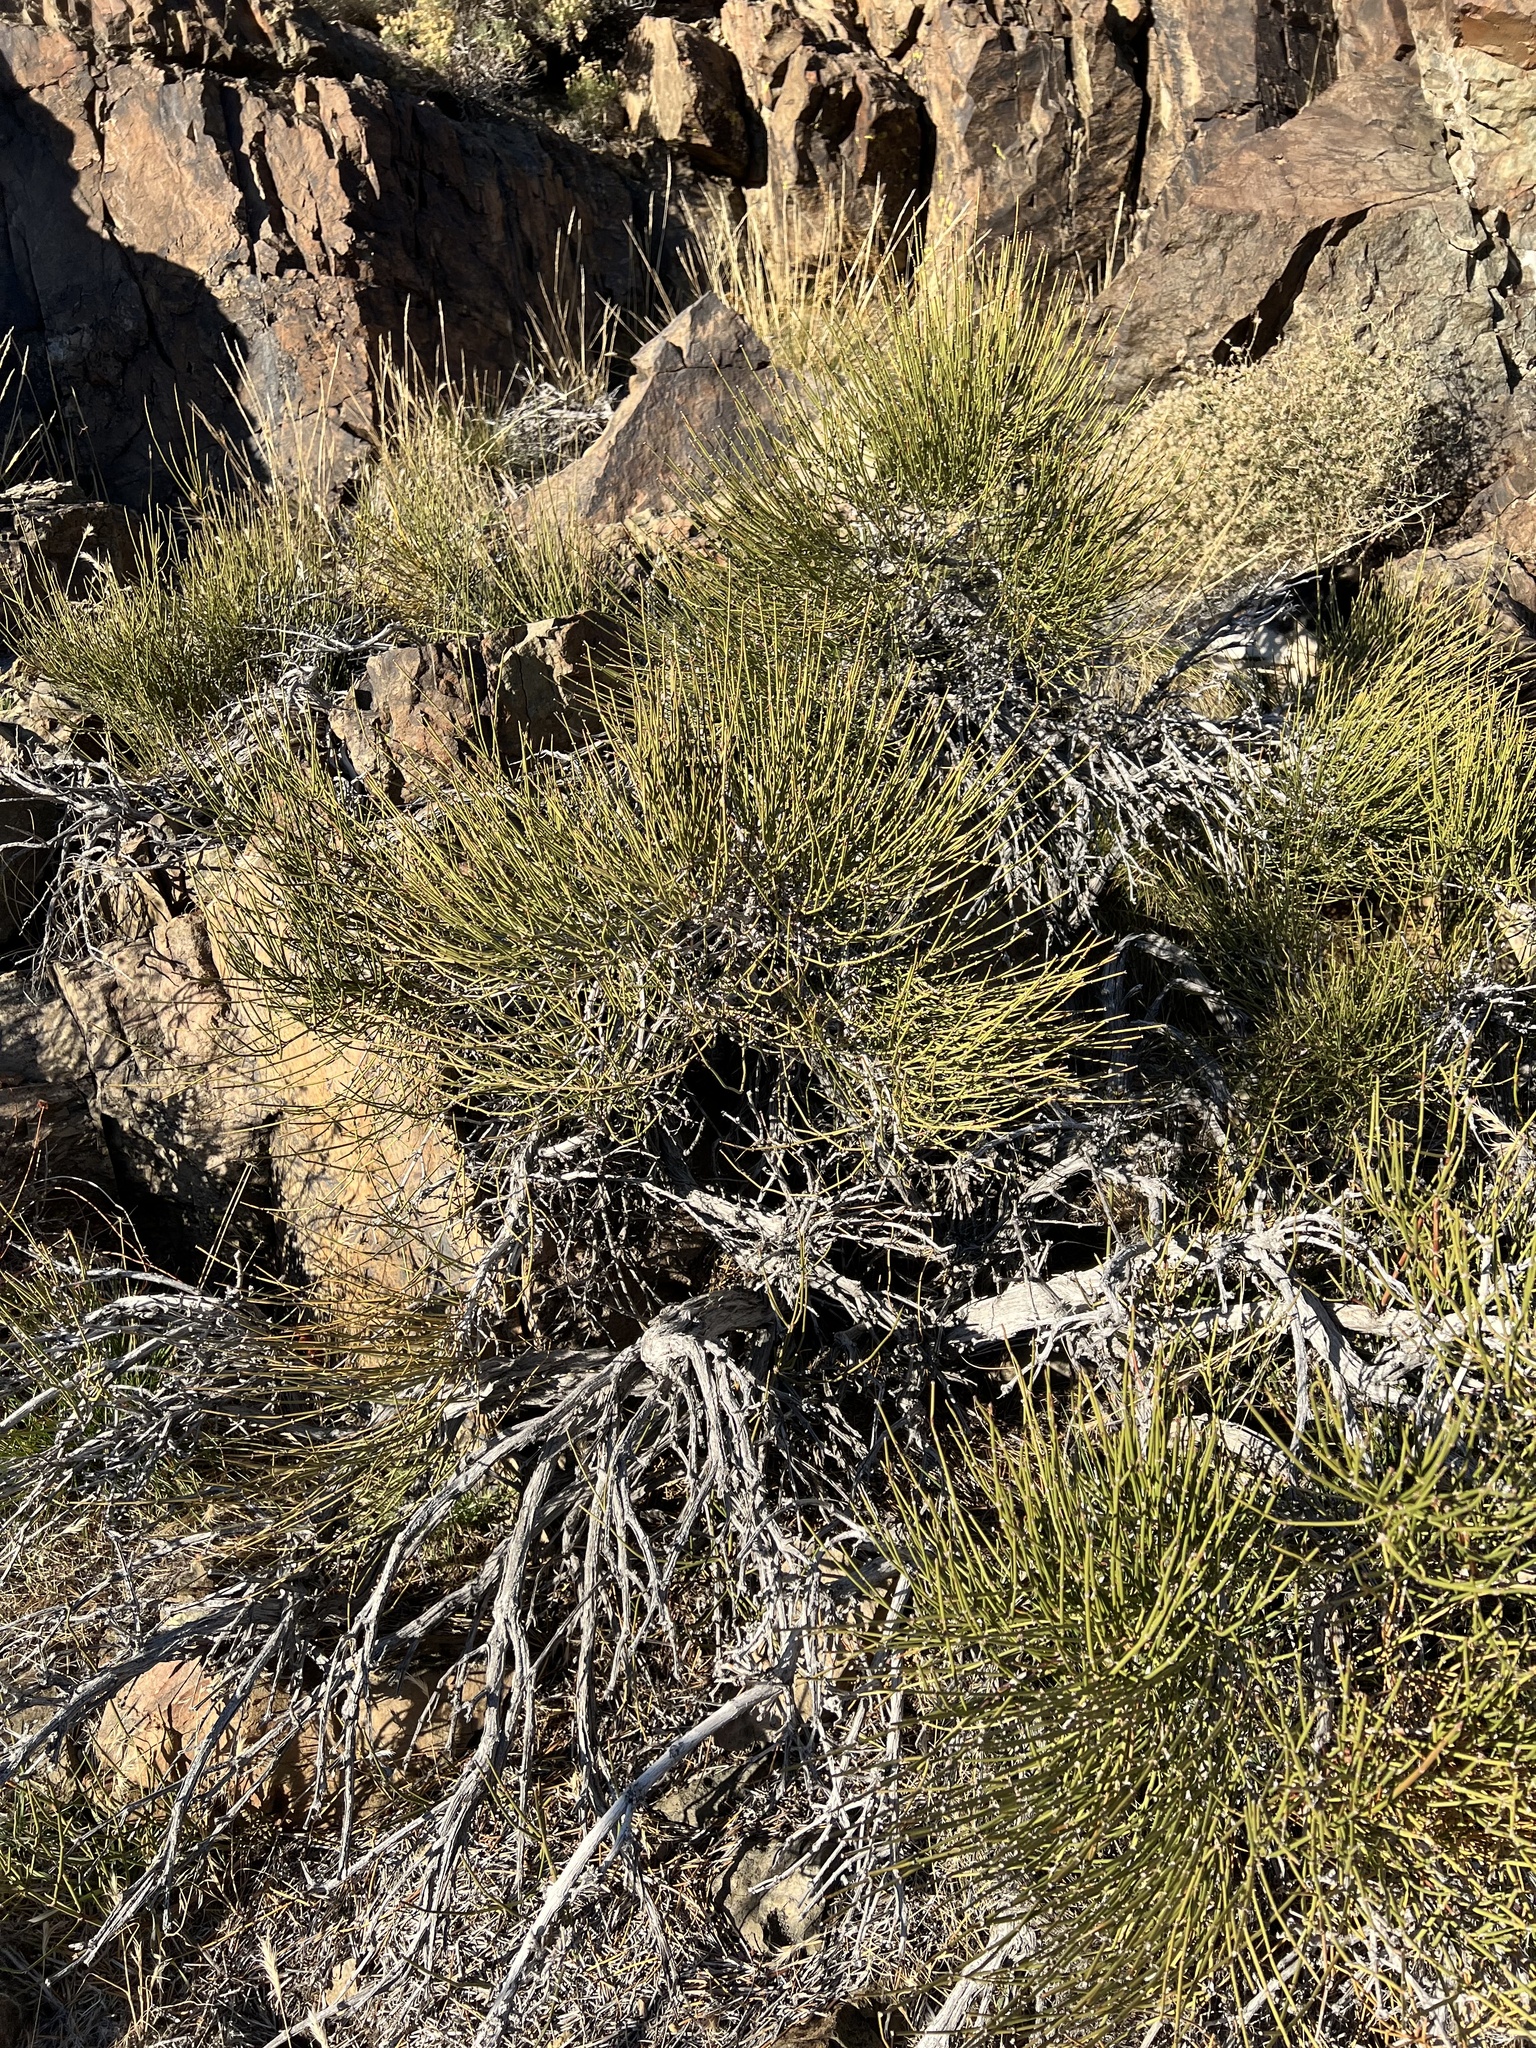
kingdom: Plantae
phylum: Tracheophyta
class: Gnetopsida
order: Ephedrales
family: Ephedraceae
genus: Ephedra
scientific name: Ephedra viridis
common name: Green ephedra
